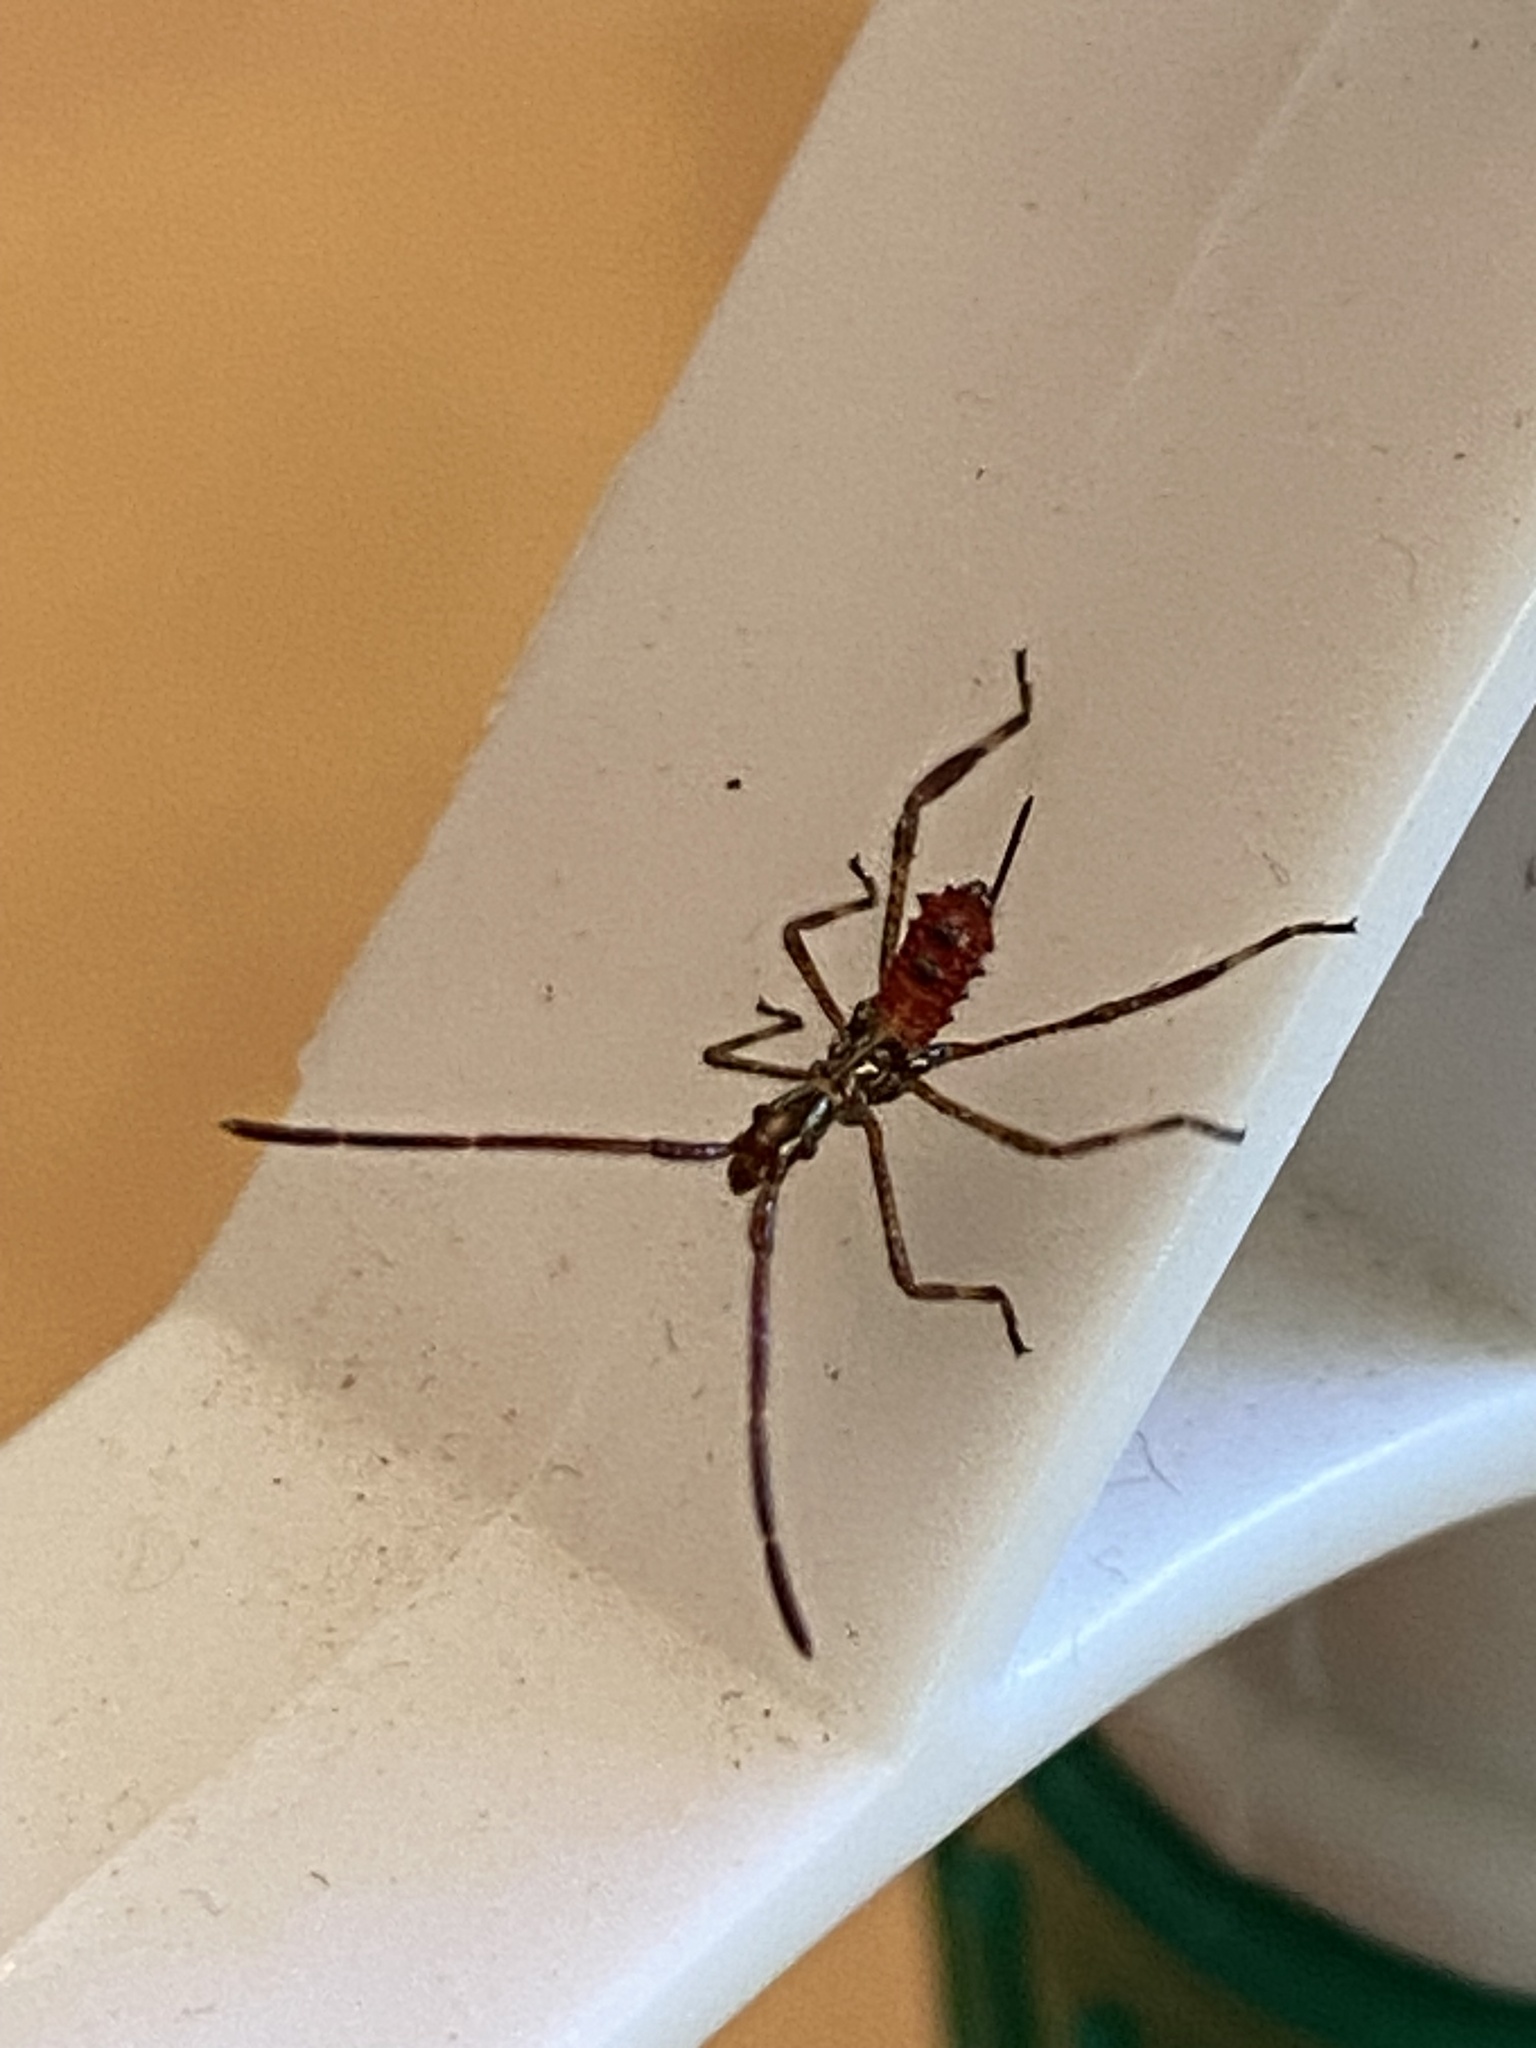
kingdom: Animalia
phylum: Arthropoda
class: Insecta
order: Hemiptera
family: Coreidae
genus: Leptoglossus
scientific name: Leptoglossus occidentalis
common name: Western conifer-seed bug
